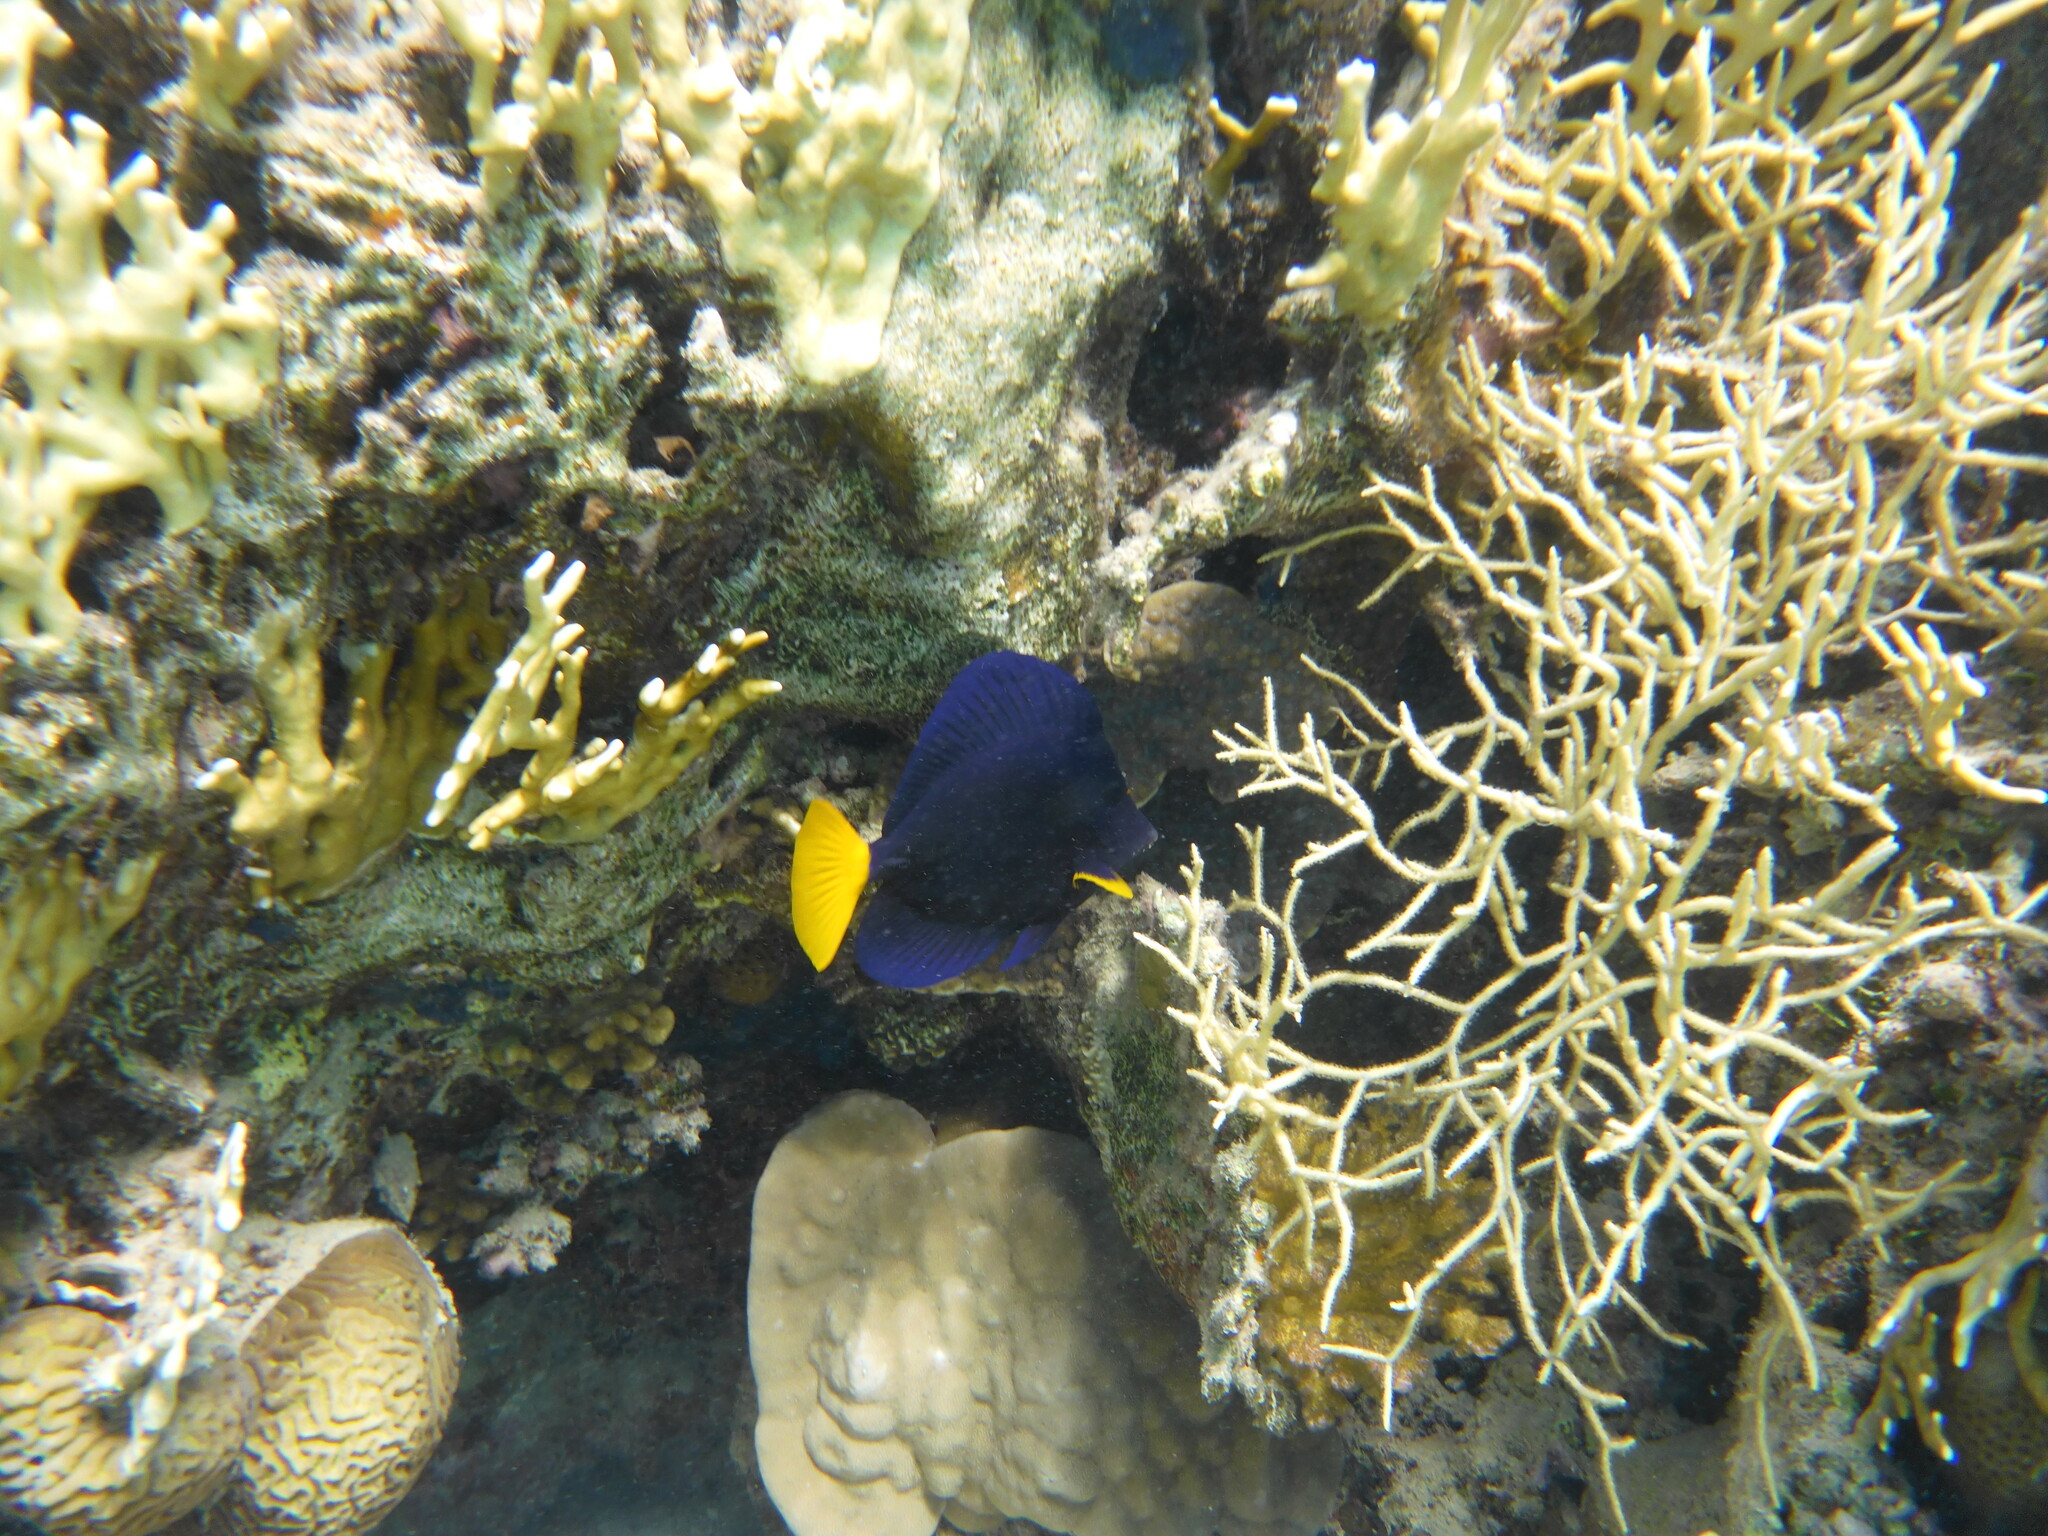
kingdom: Animalia
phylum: Chordata
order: Perciformes
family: Acanthuridae
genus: Zebrasoma
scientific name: Zebrasoma xanthurum
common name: Purple tang
